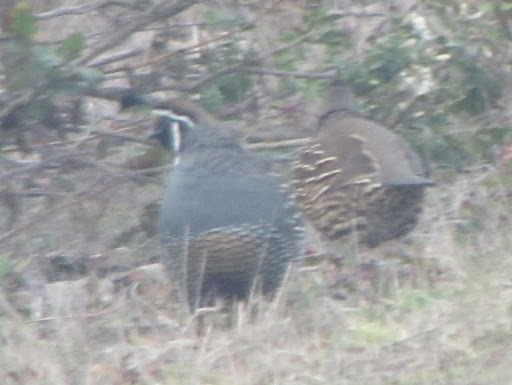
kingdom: Animalia
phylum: Chordata
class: Aves
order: Galliformes
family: Odontophoridae
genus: Callipepla
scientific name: Callipepla californica
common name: California quail
